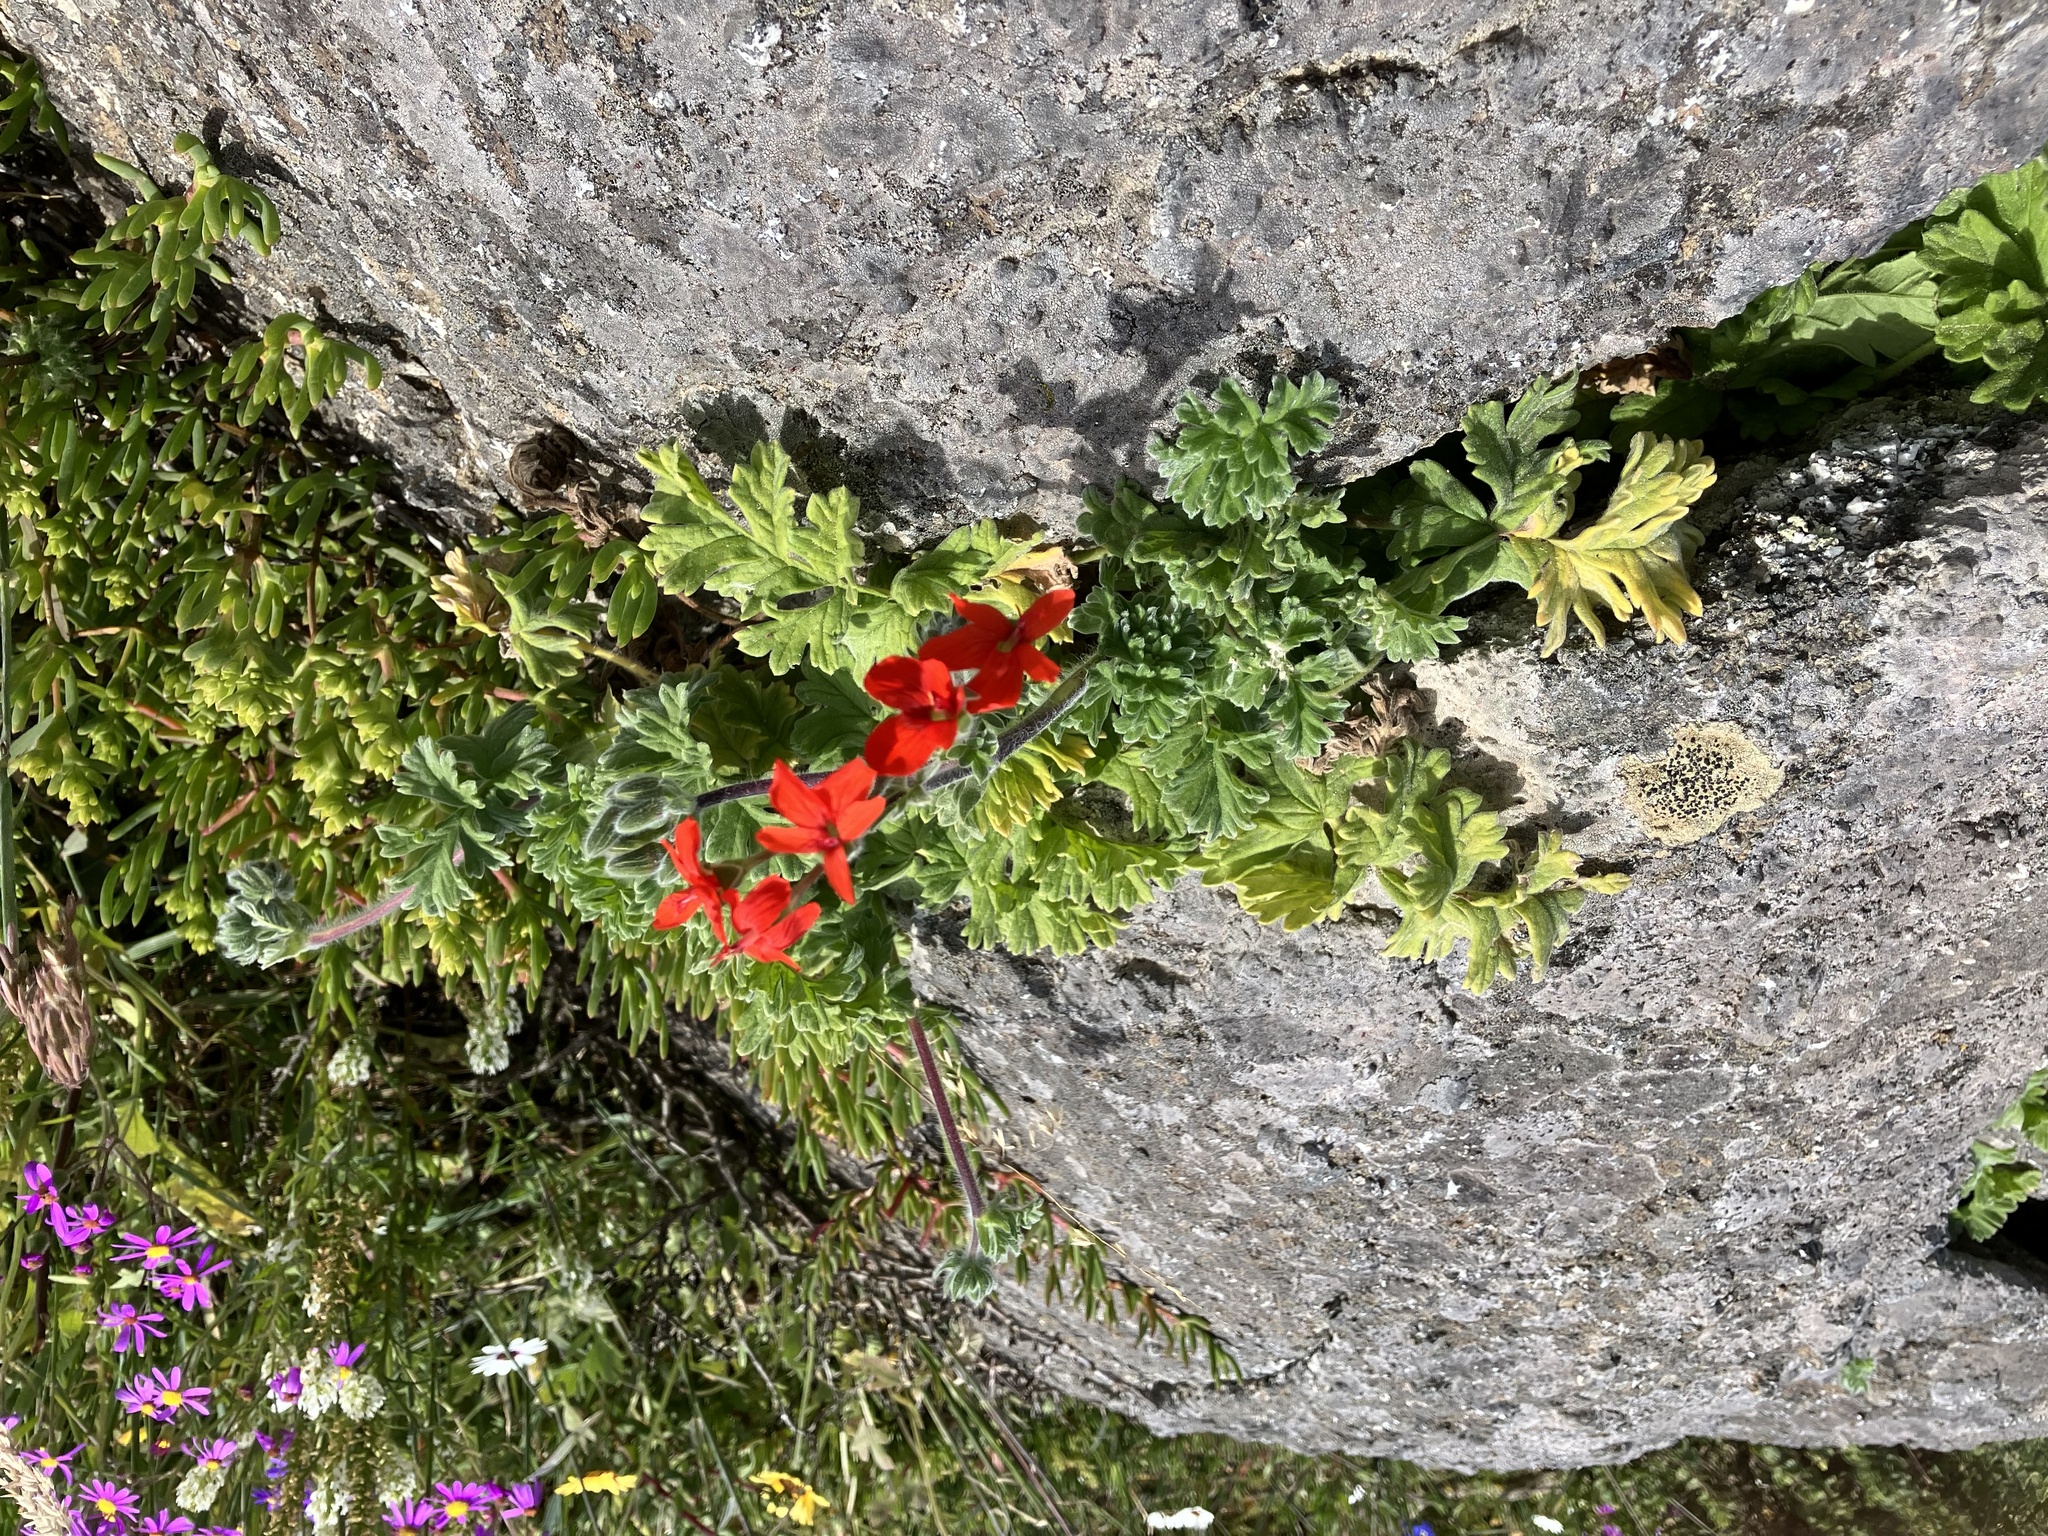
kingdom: Plantae
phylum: Tracheophyta
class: Magnoliopsida
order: Geraniales
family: Geraniaceae
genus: Pelargonium
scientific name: Pelargonium fulgidum
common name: Celandine-leaf pelargonium
